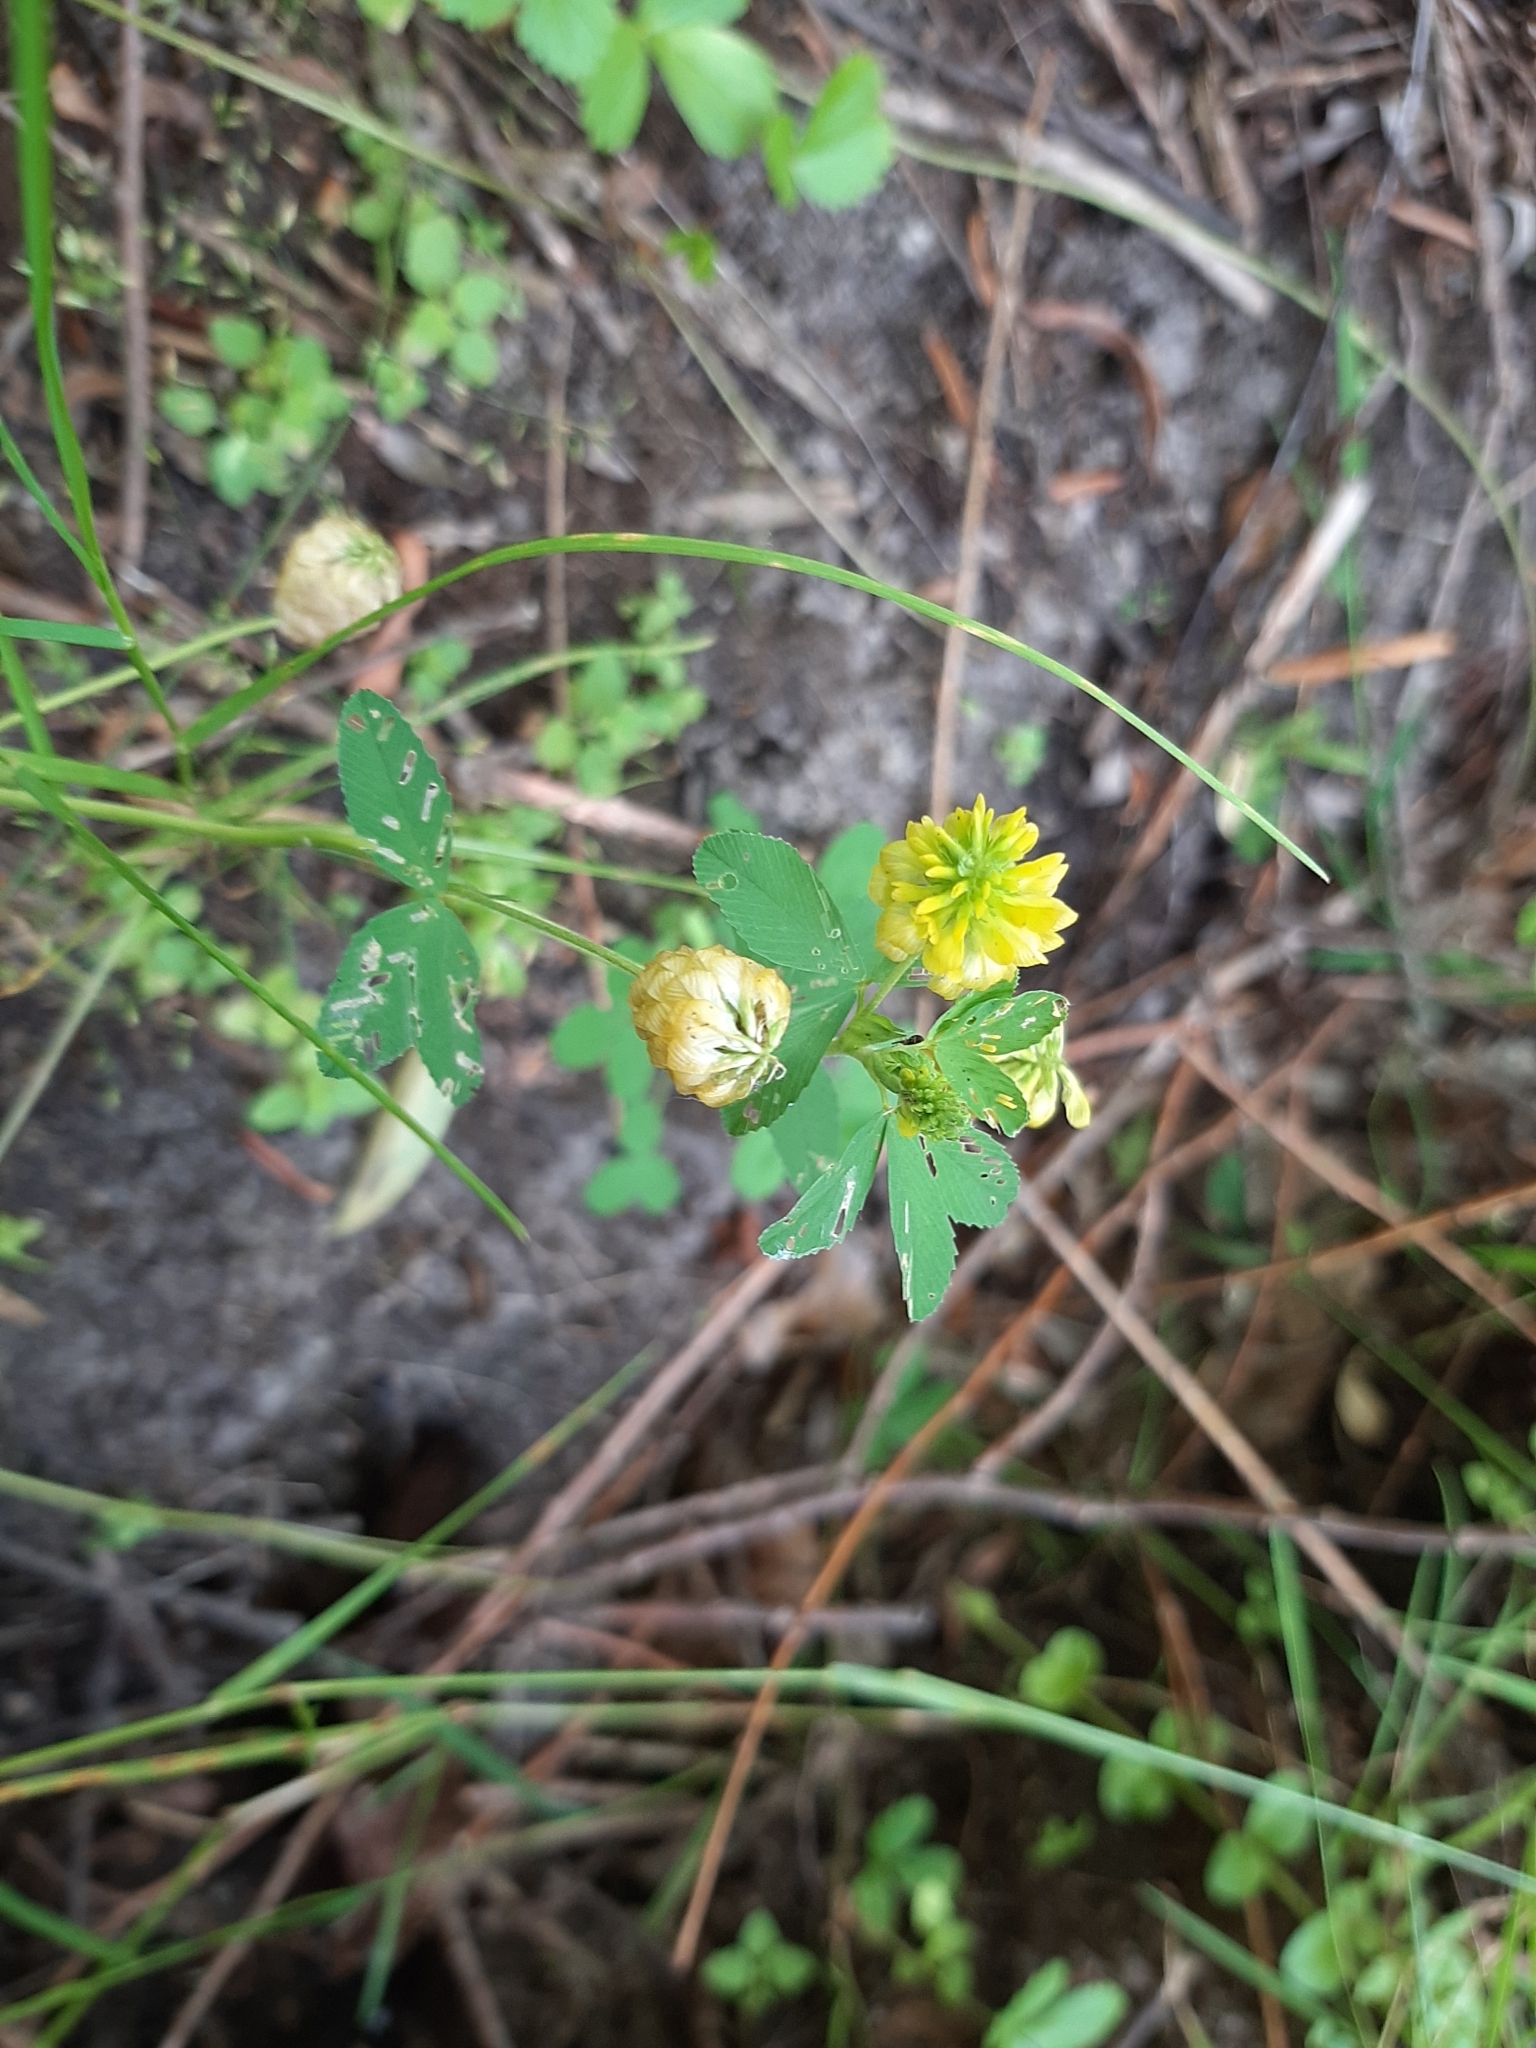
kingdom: Plantae
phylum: Tracheophyta
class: Magnoliopsida
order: Fabales
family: Fabaceae
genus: Trifolium
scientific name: Trifolium aureum
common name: Golden clover
